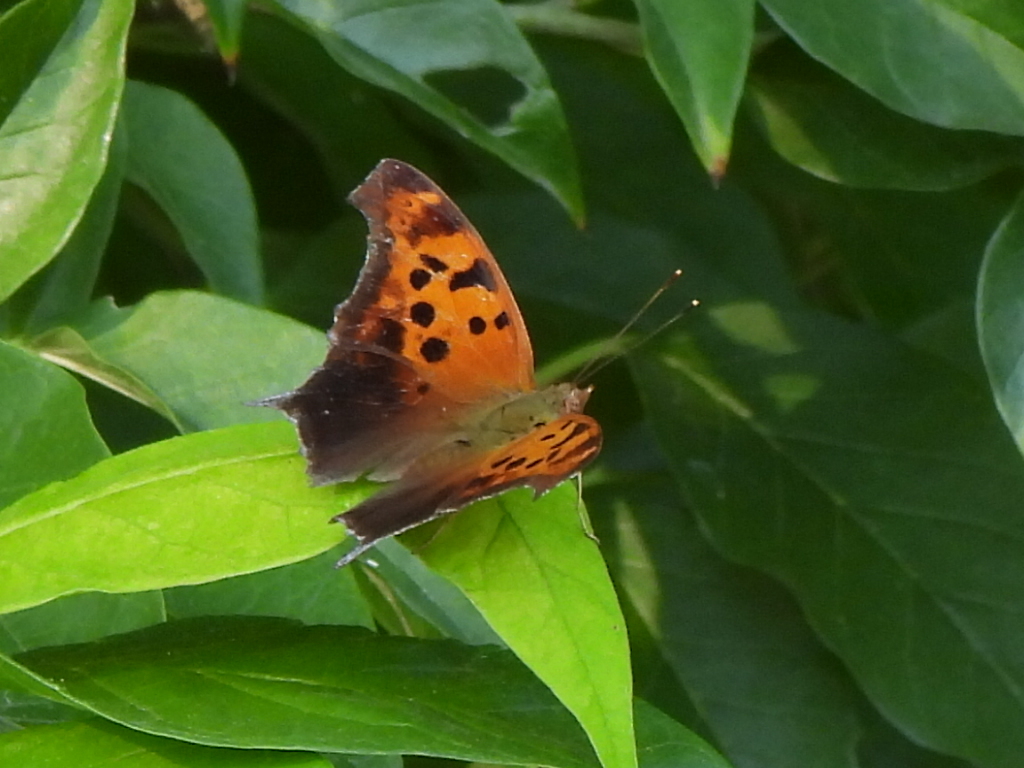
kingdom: Animalia
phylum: Arthropoda
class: Insecta
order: Lepidoptera
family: Nymphalidae
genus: Polygonia
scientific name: Polygonia interrogationis
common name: Question mark
